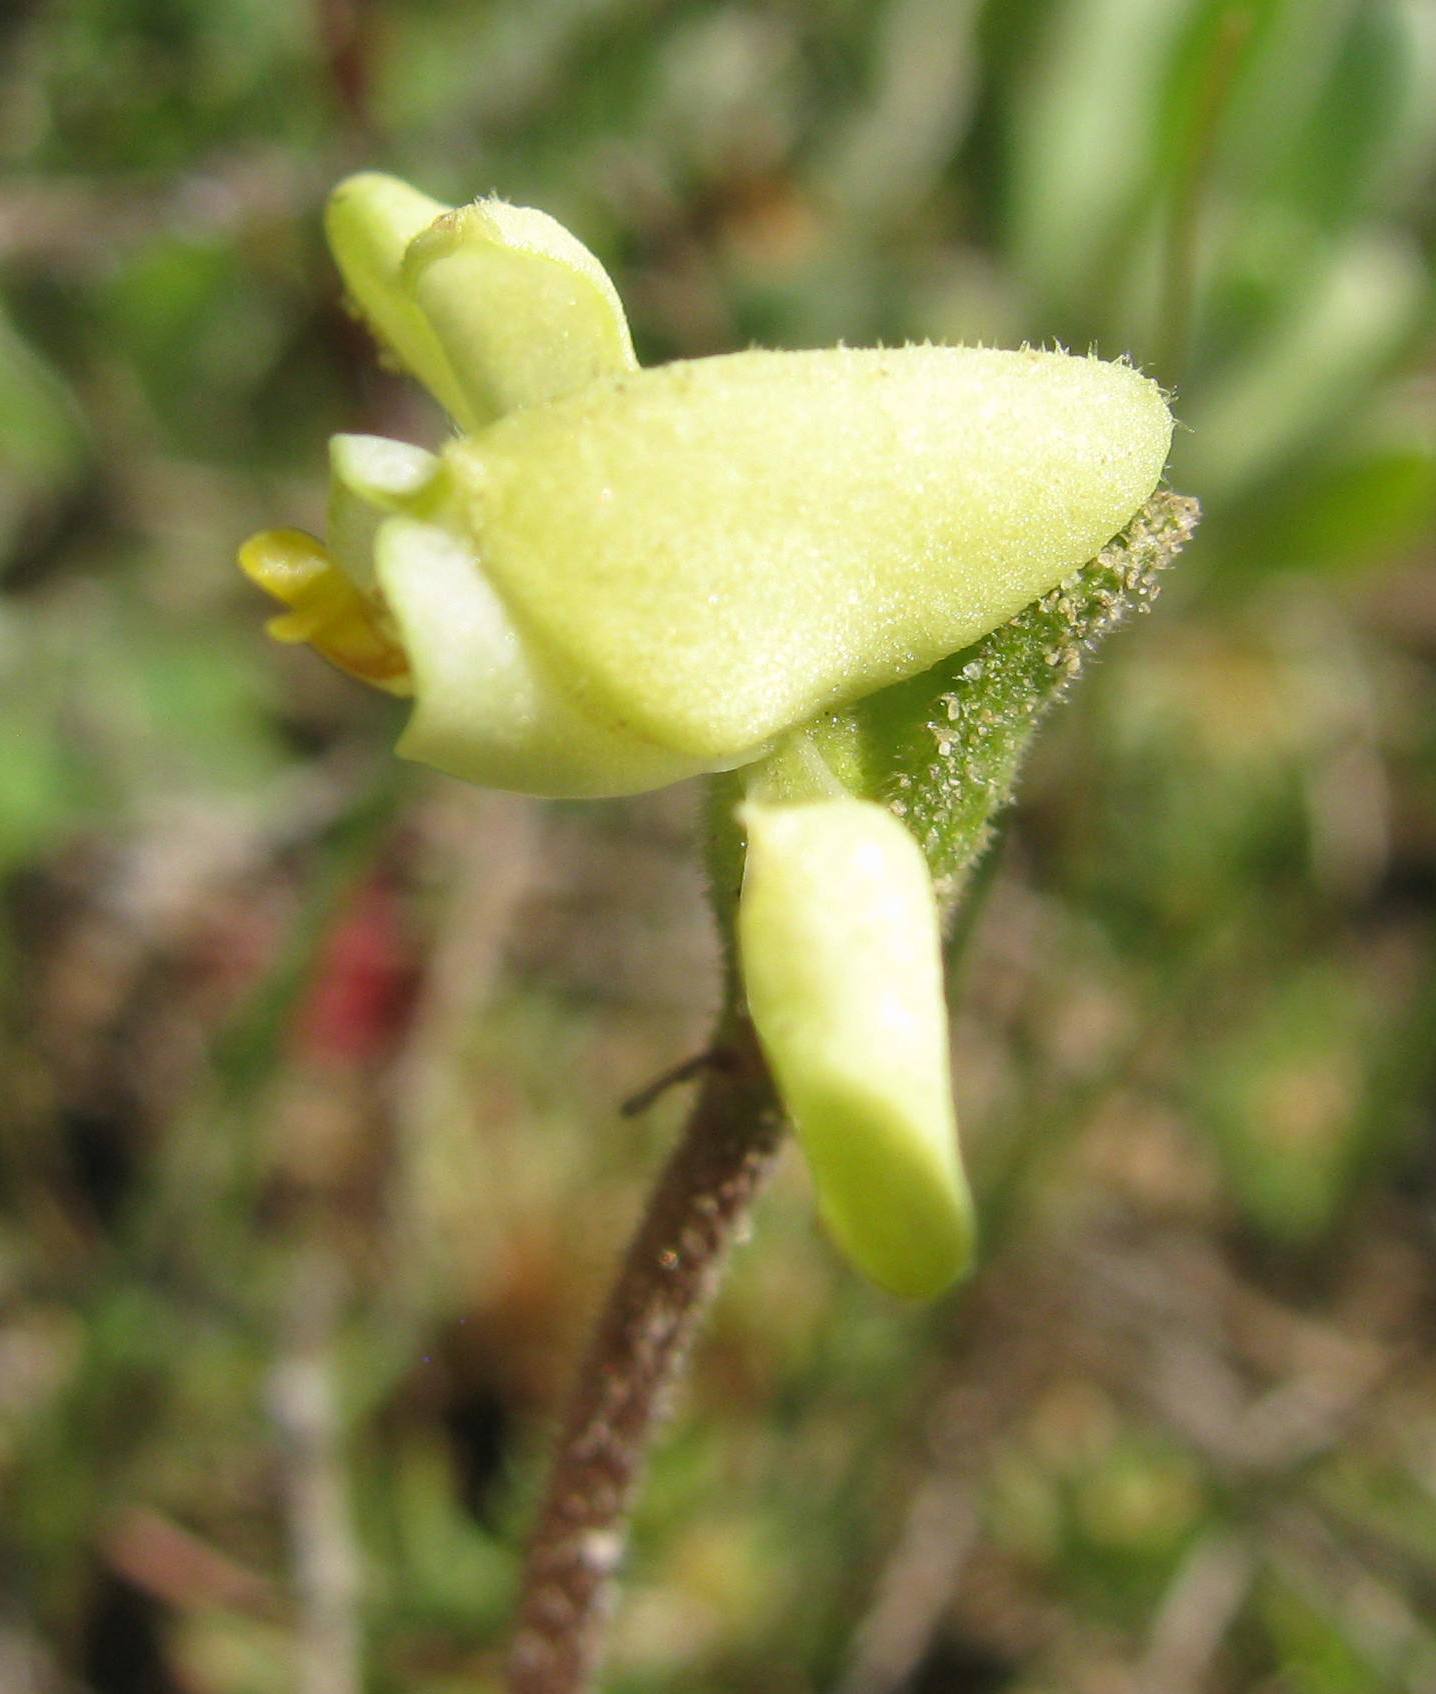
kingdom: Plantae
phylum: Tracheophyta
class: Liliopsida
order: Asparagales
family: Orchidaceae
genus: Disperis
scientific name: Disperis villosa
